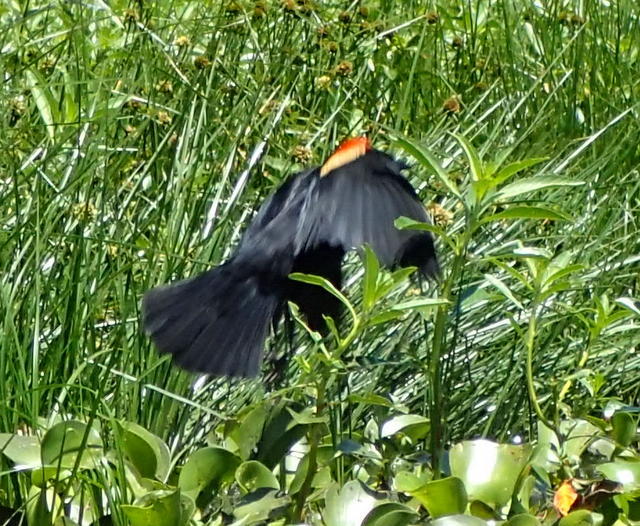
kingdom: Animalia
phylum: Chordata
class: Aves
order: Passeriformes
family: Icteridae
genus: Agelaius
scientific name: Agelaius phoeniceus
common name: Red-winged blackbird
